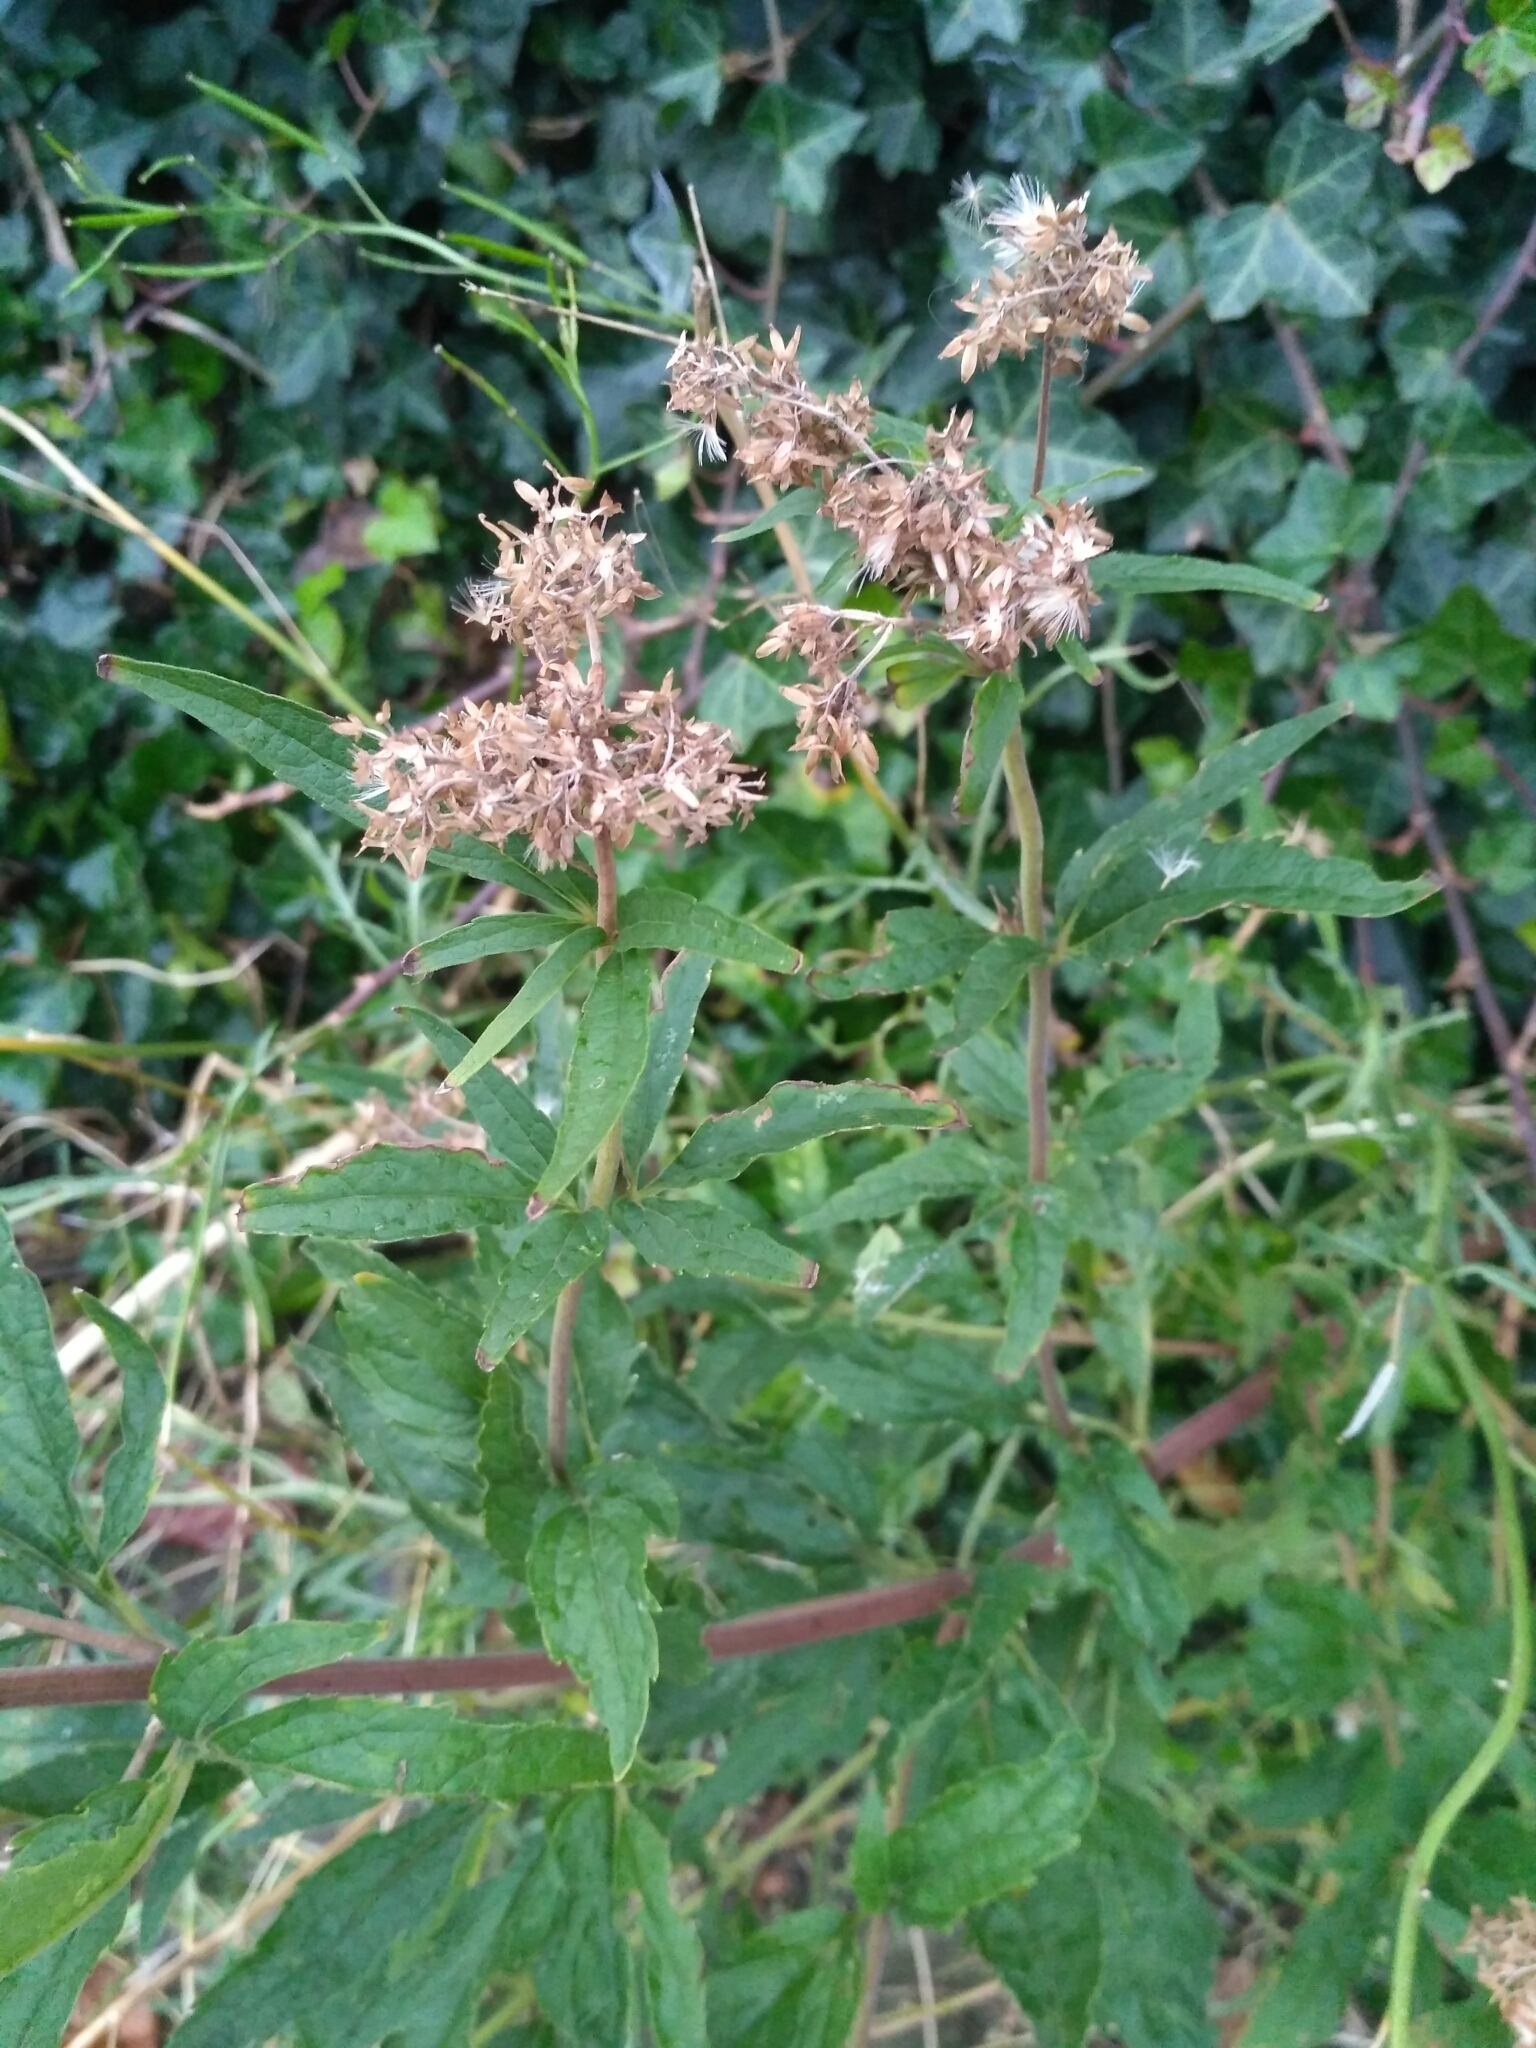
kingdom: Plantae
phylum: Tracheophyta
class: Magnoliopsida
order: Asterales
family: Asteraceae
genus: Eupatorium
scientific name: Eupatorium cannabinum
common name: Hemp-agrimony
